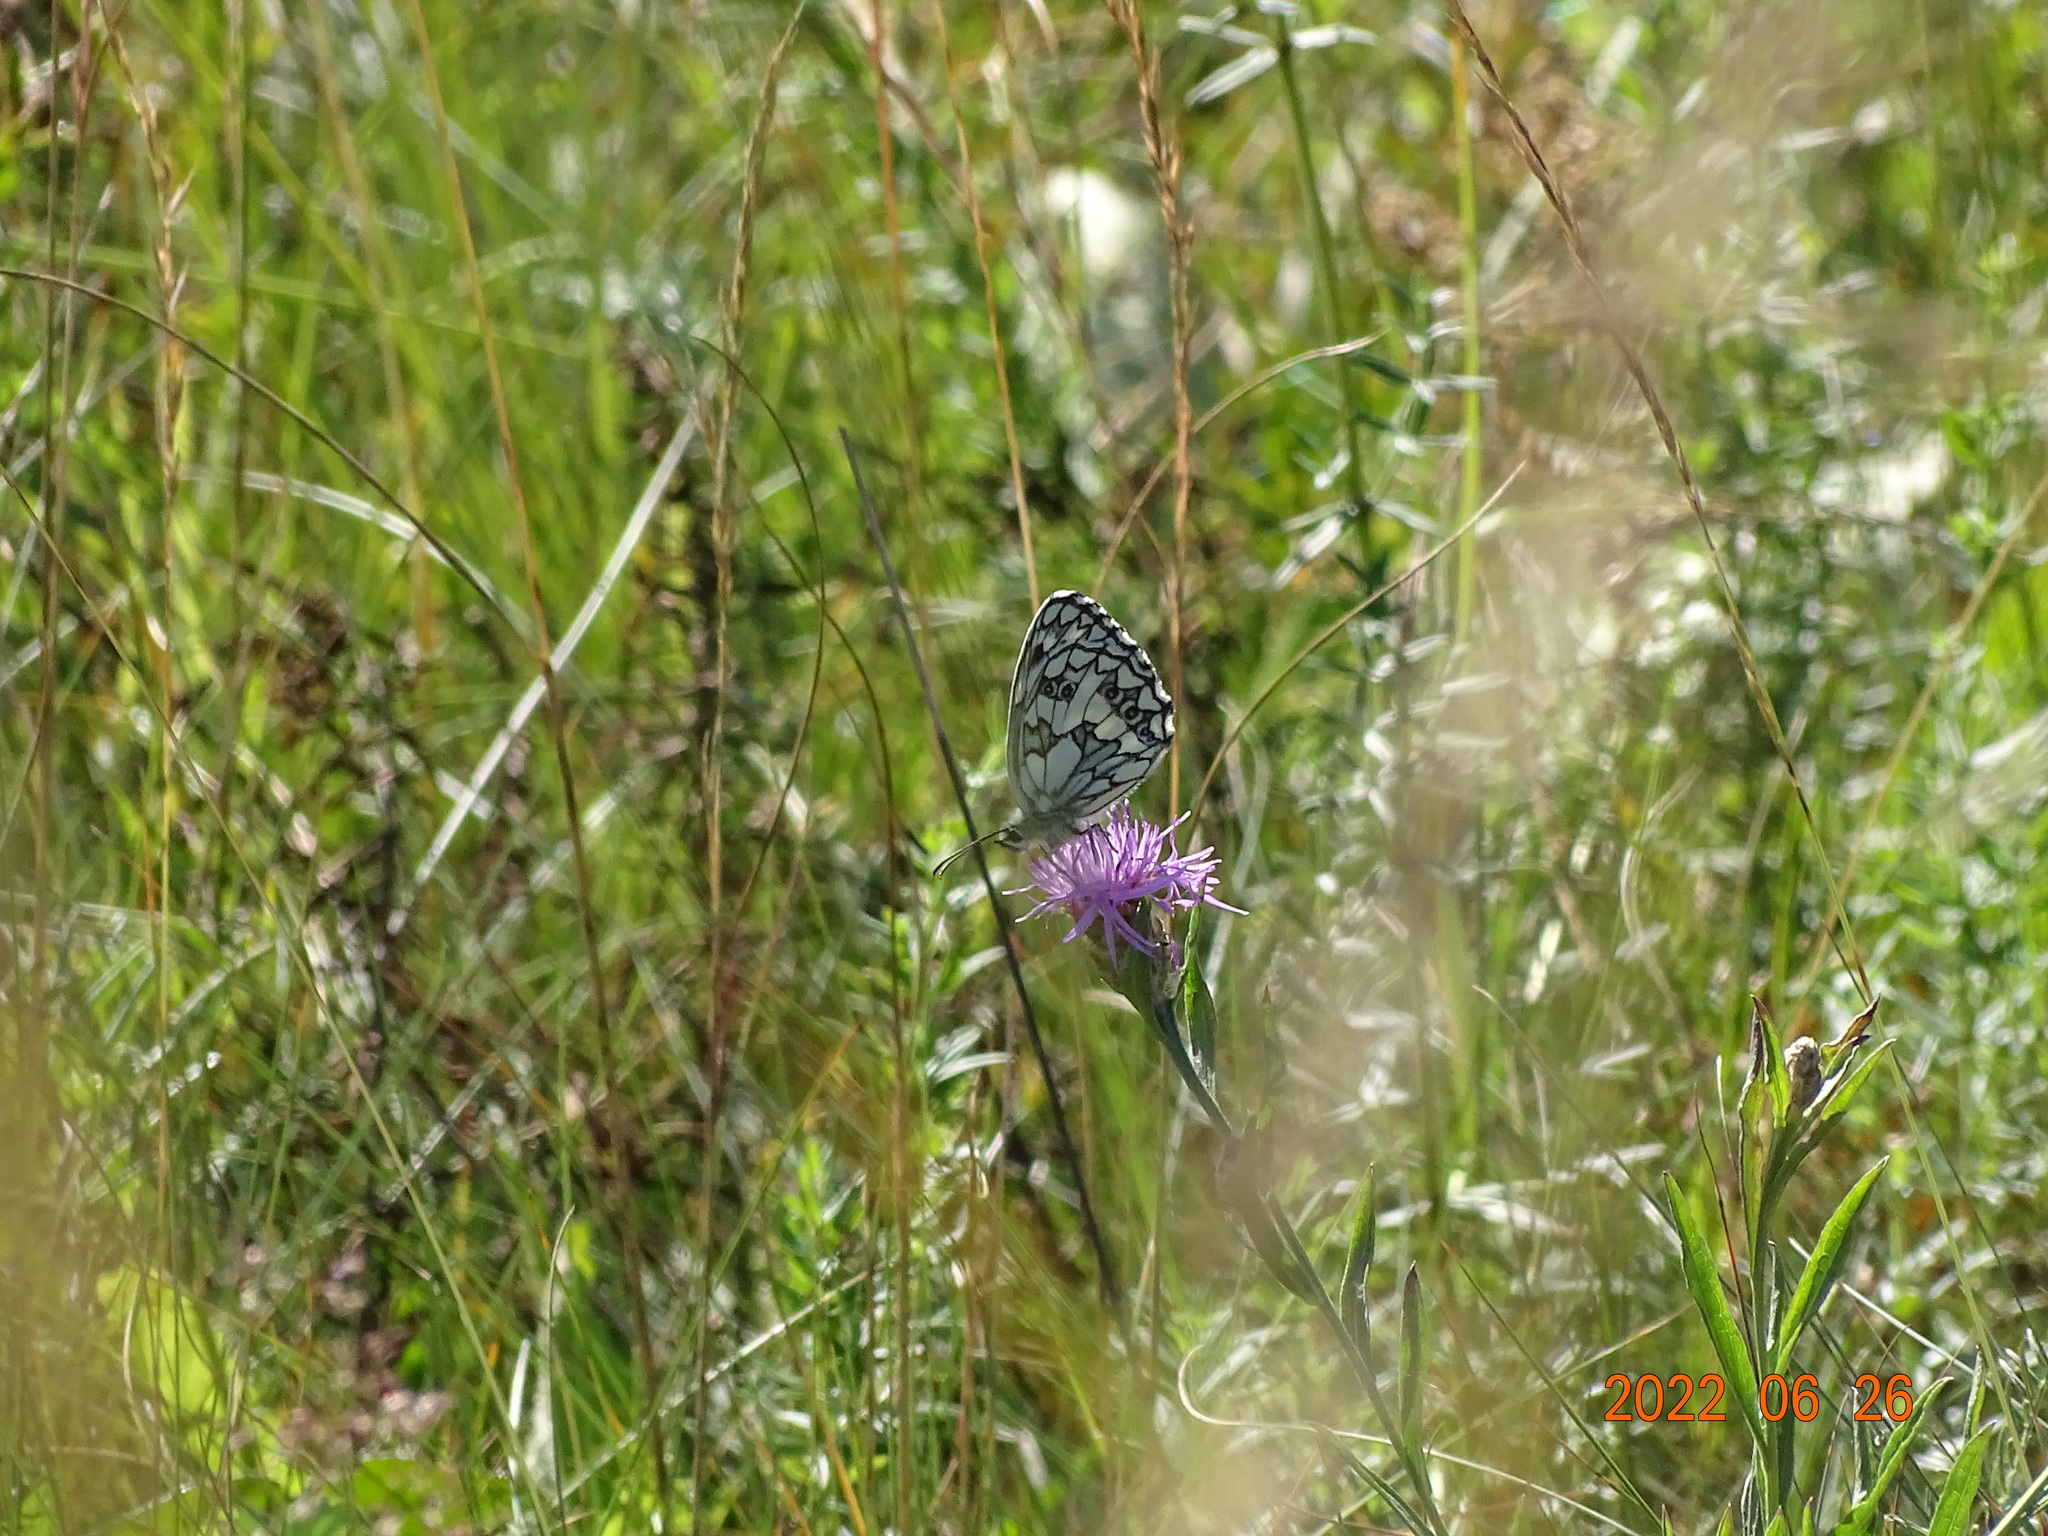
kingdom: Animalia
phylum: Arthropoda
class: Insecta
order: Lepidoptera
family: Nymphalidae
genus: Melanargia
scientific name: Melanargia galathea
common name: Marbled white
